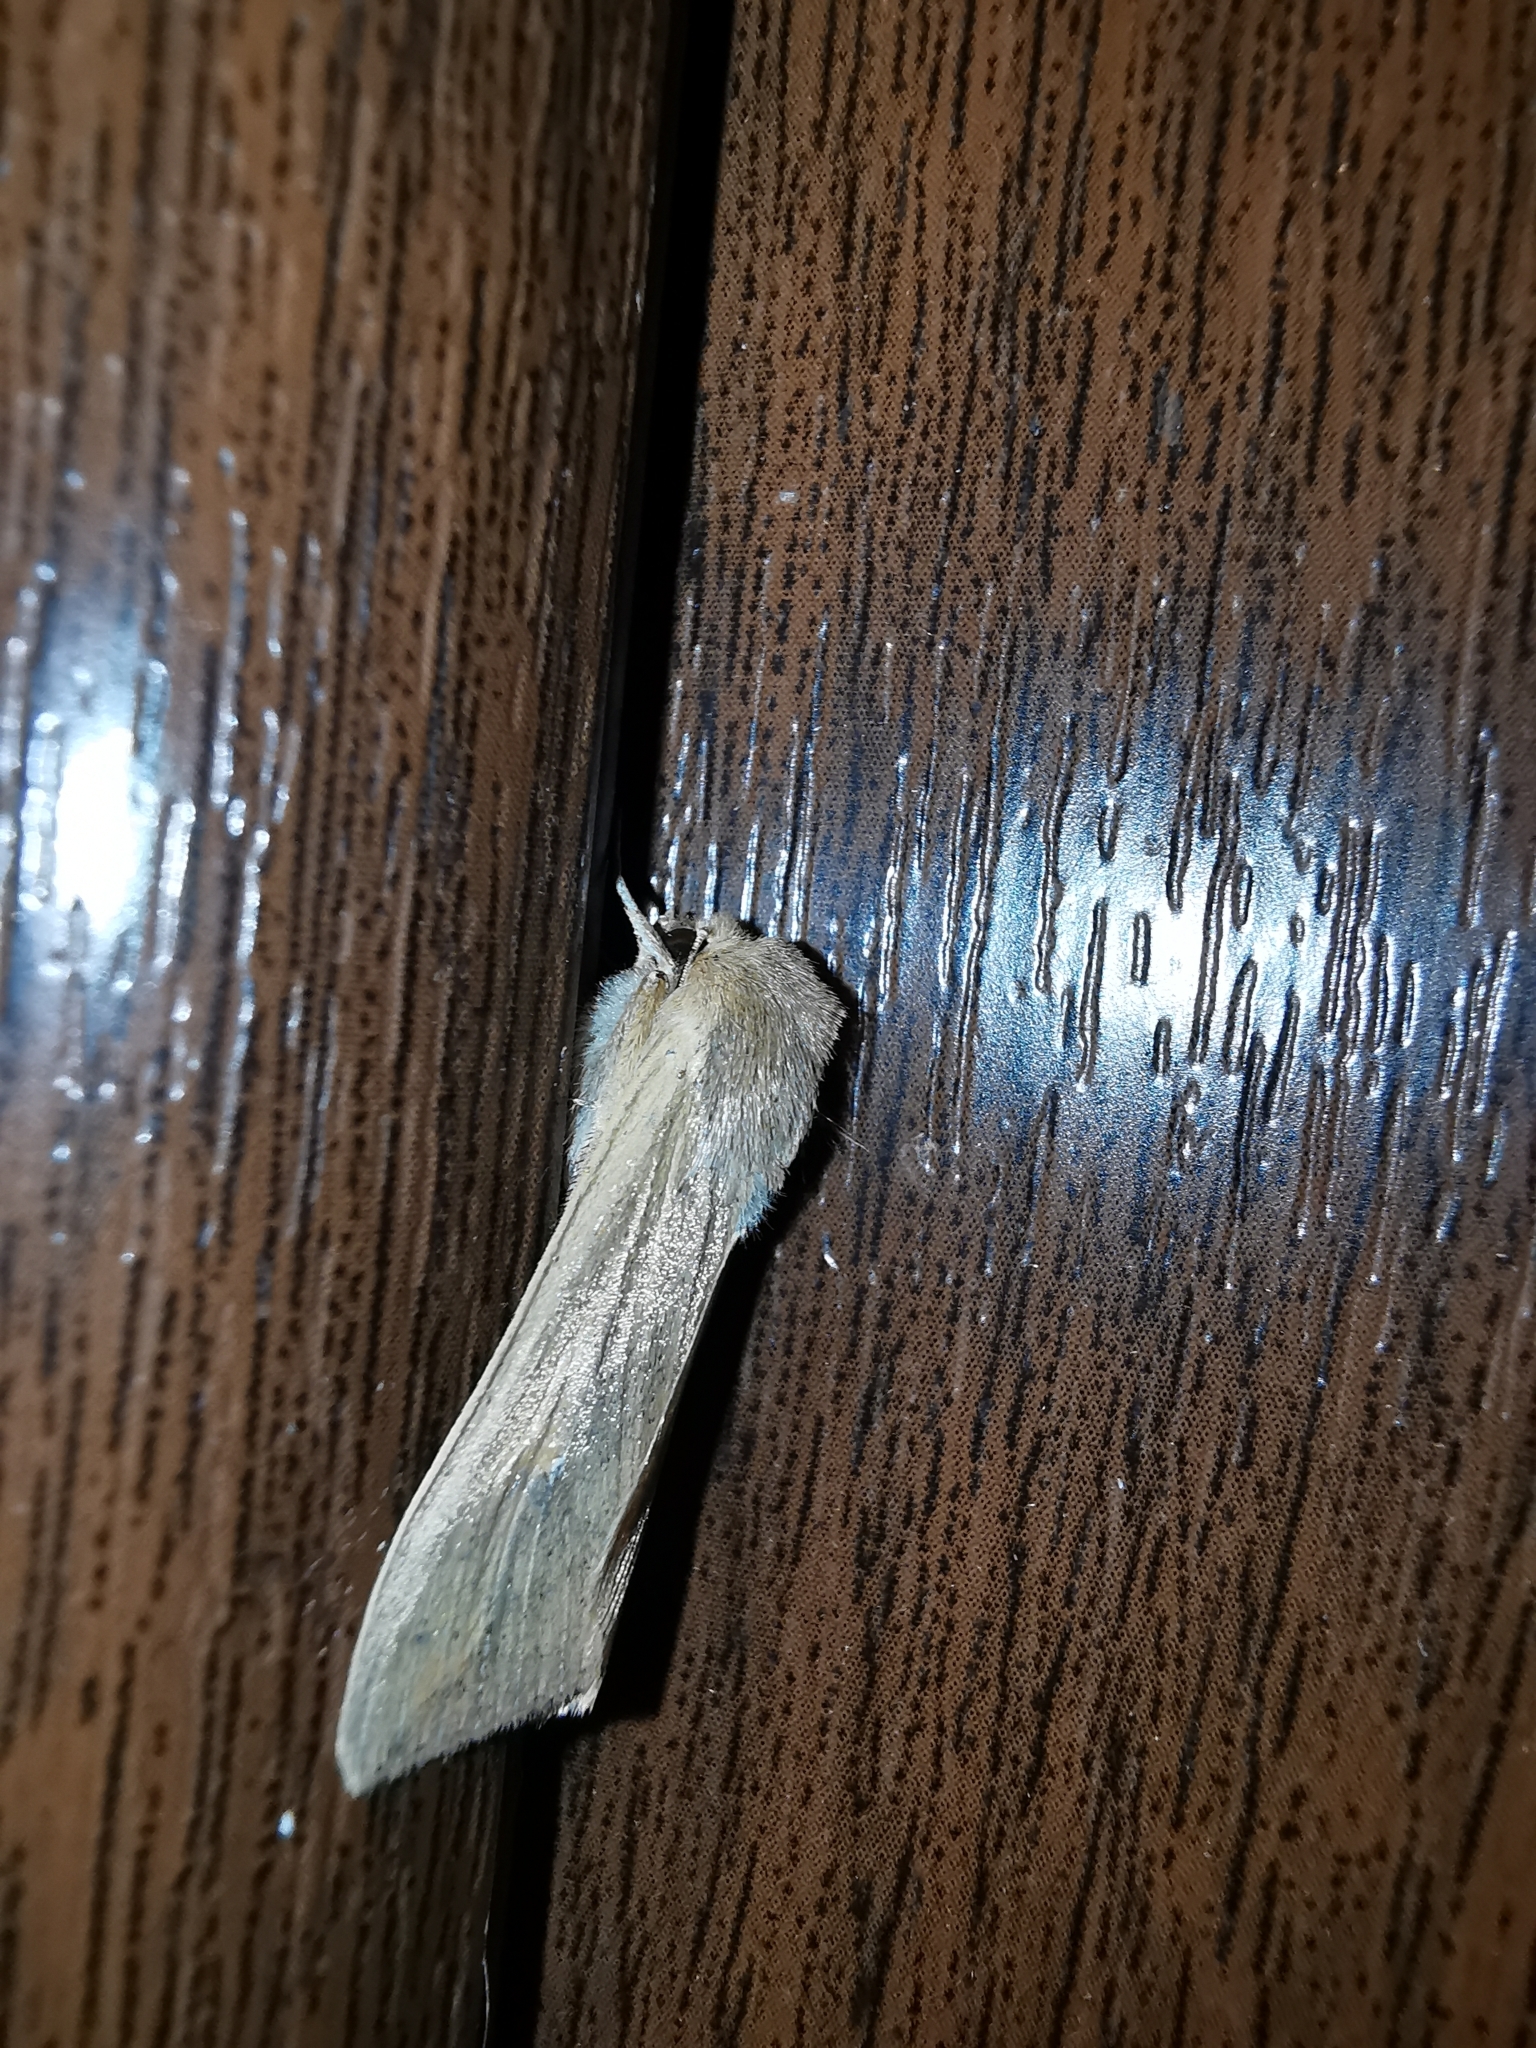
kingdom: Animalia
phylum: Arthropoda
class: Insecta
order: Lepidoptera
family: Noctuidae
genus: Mythimna
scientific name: Mythimna unipuncta
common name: White-speck
